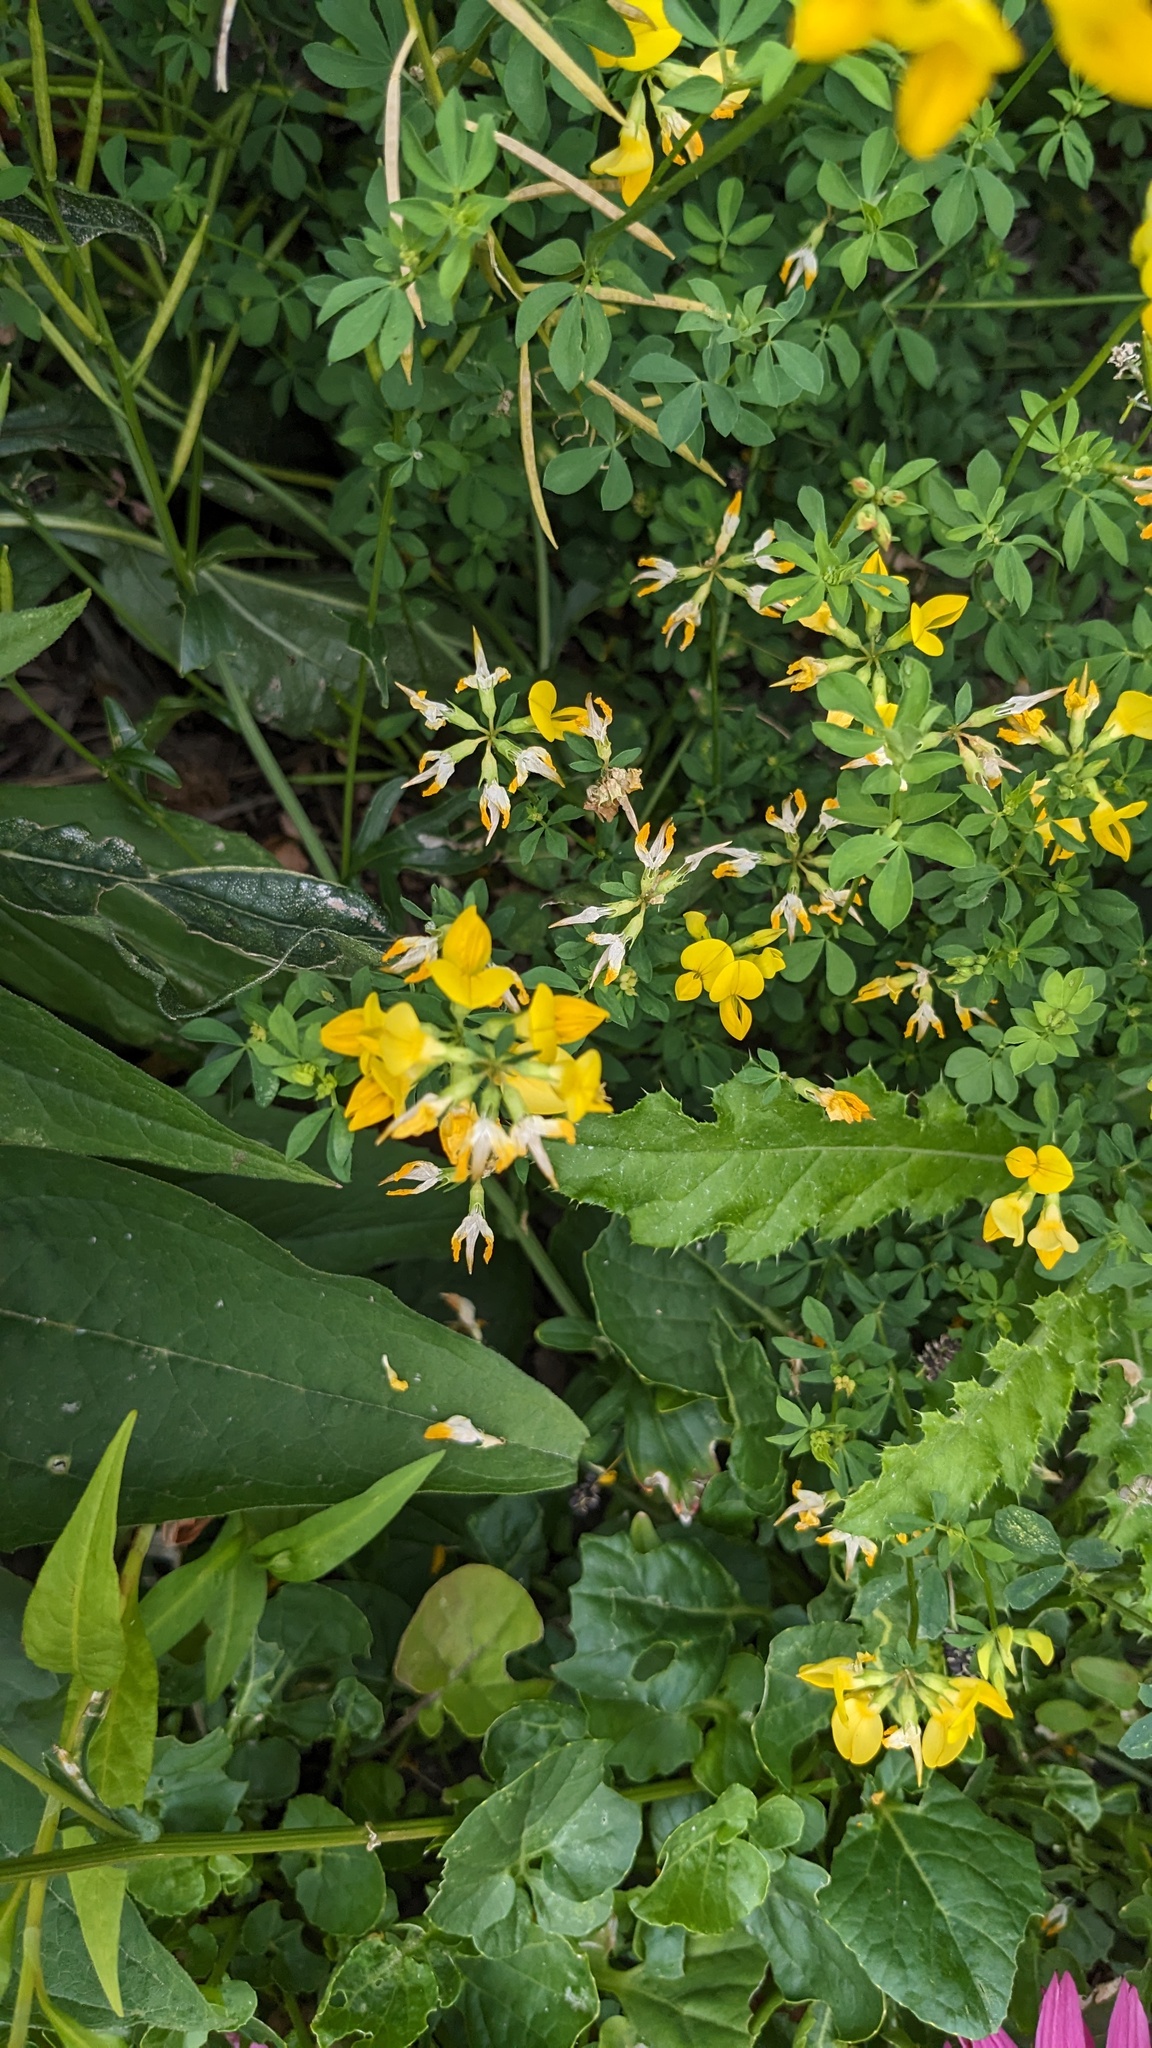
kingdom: Plantae
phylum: Tracheophyta
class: Magnoliopsida
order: Fabales
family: Fabaceae
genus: Lotus
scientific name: Lotus corniculatus
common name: Common bird's-foot-trefoil
